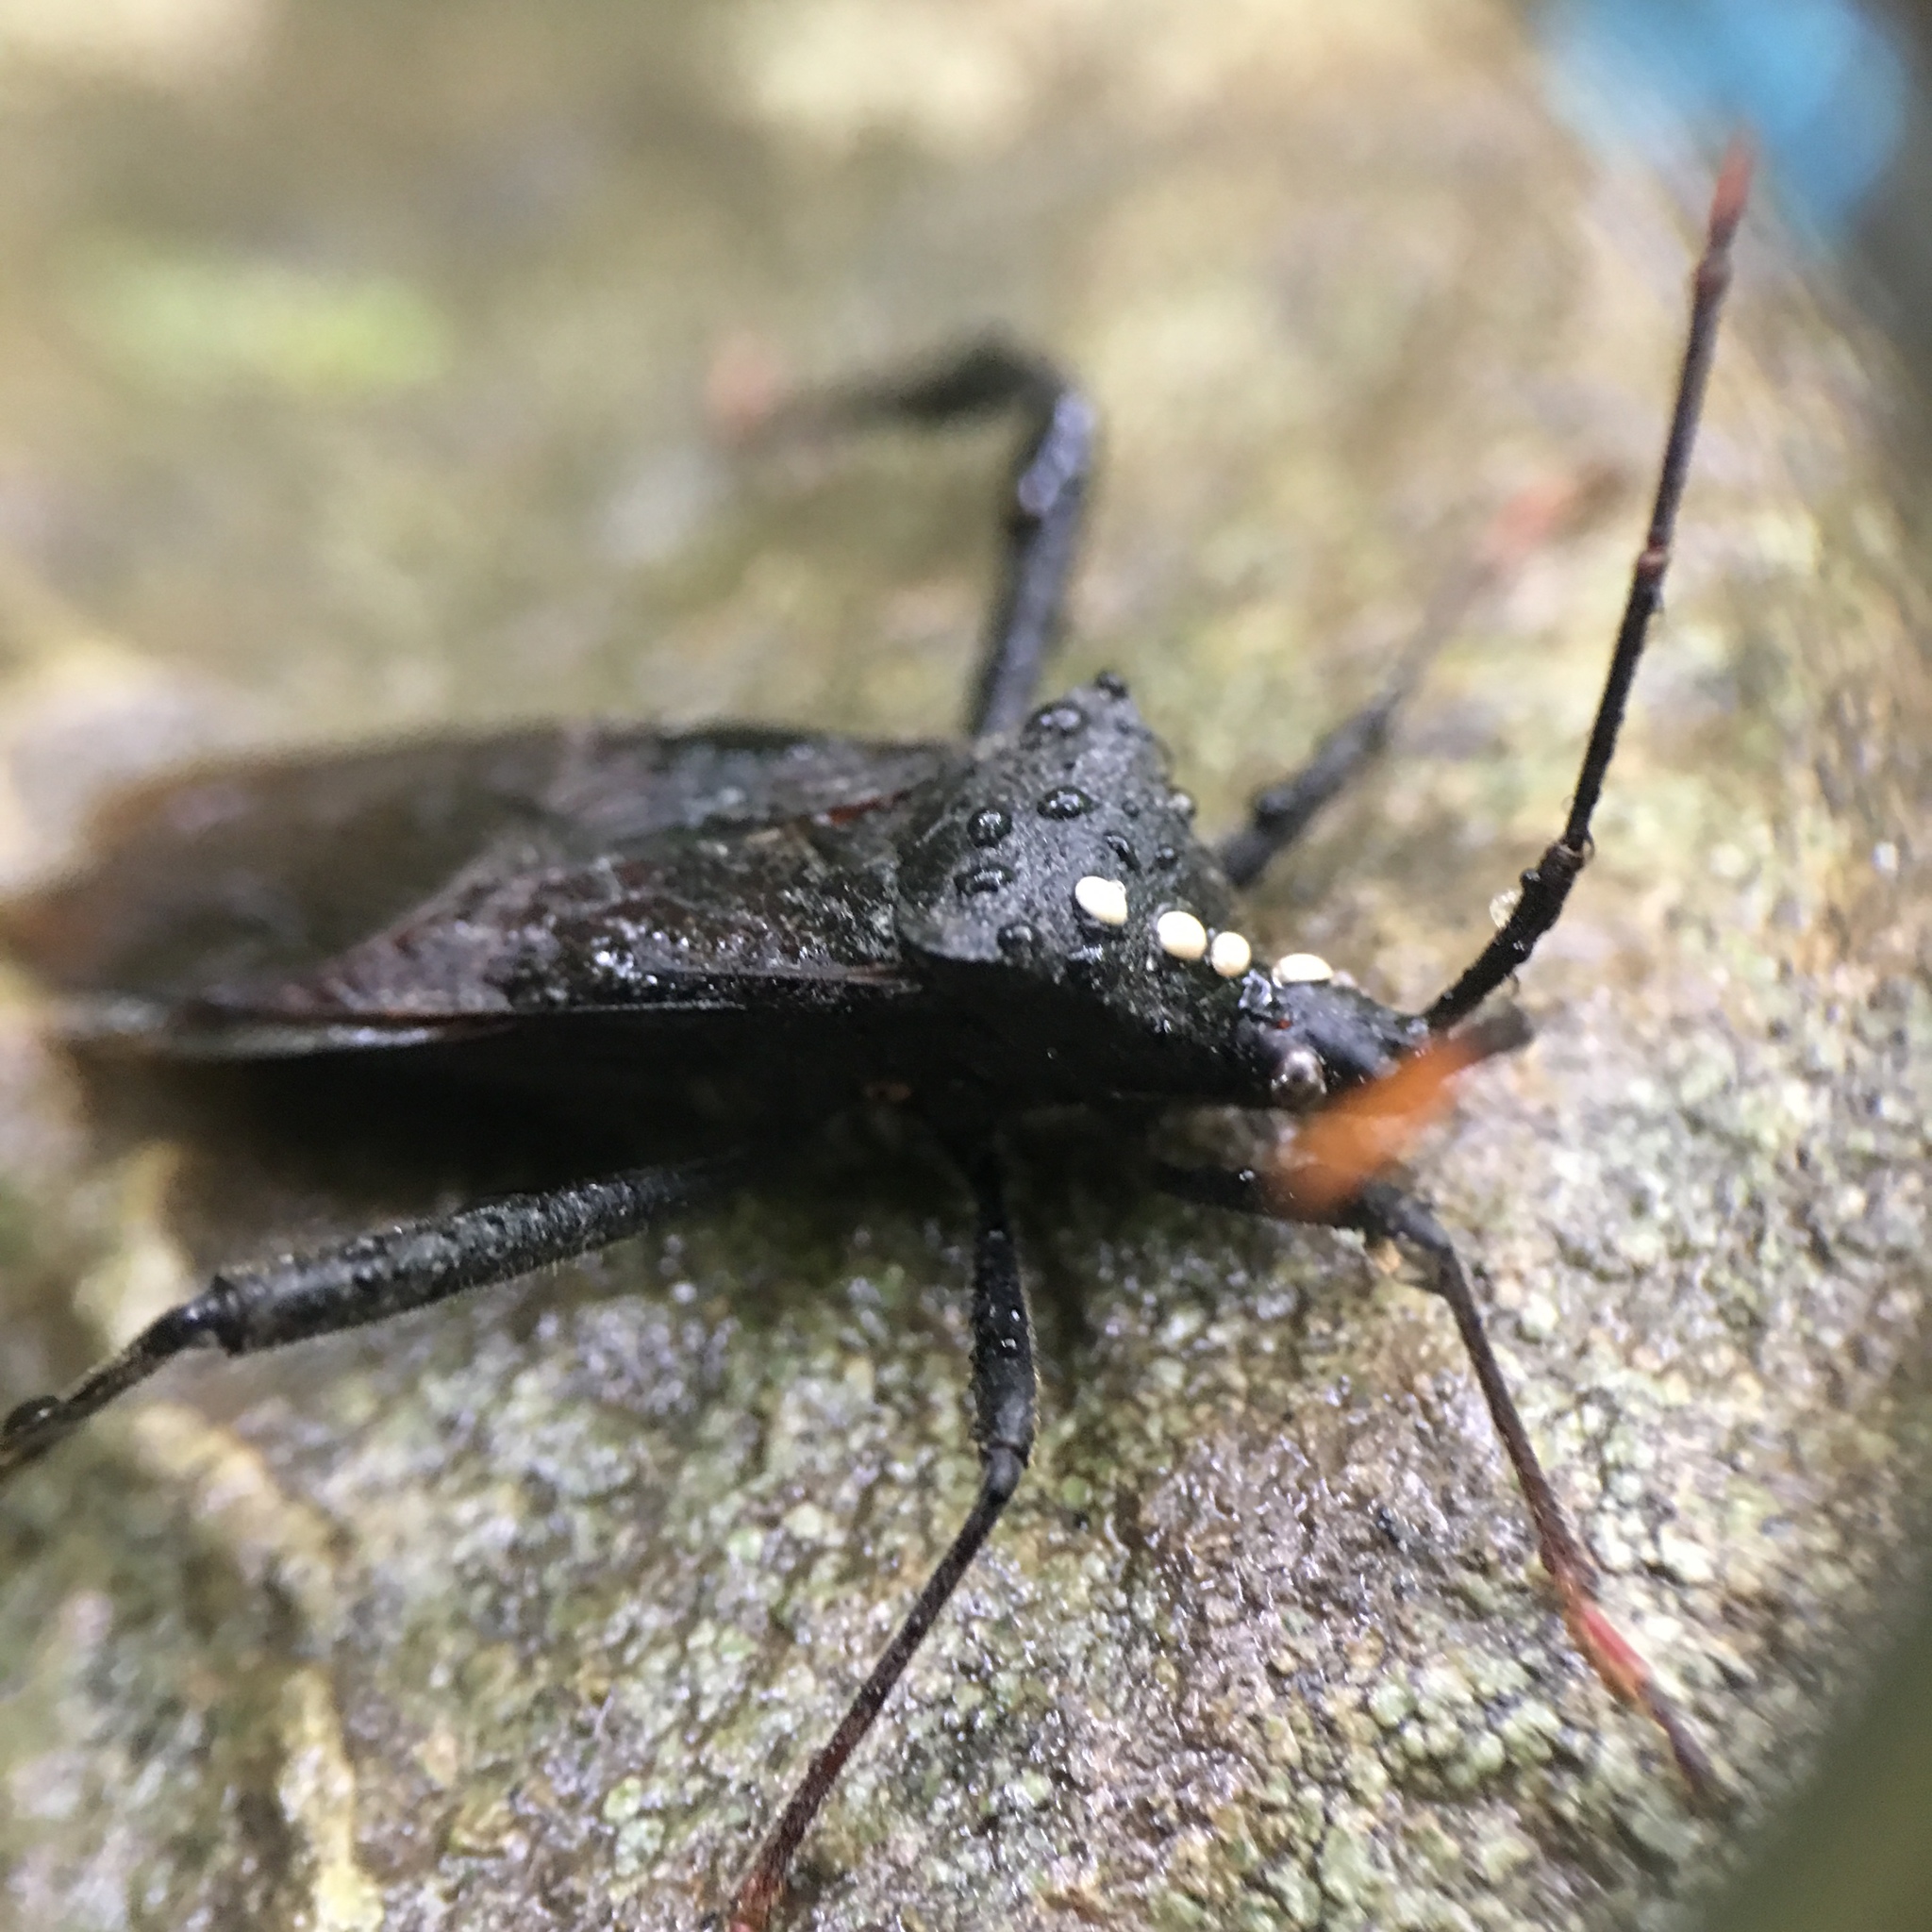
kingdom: Animalia
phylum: Arthropoda
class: Insecta
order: Hemiptera
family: Coreidae
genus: Acanthocephala
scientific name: Acanthocephala terminalis
